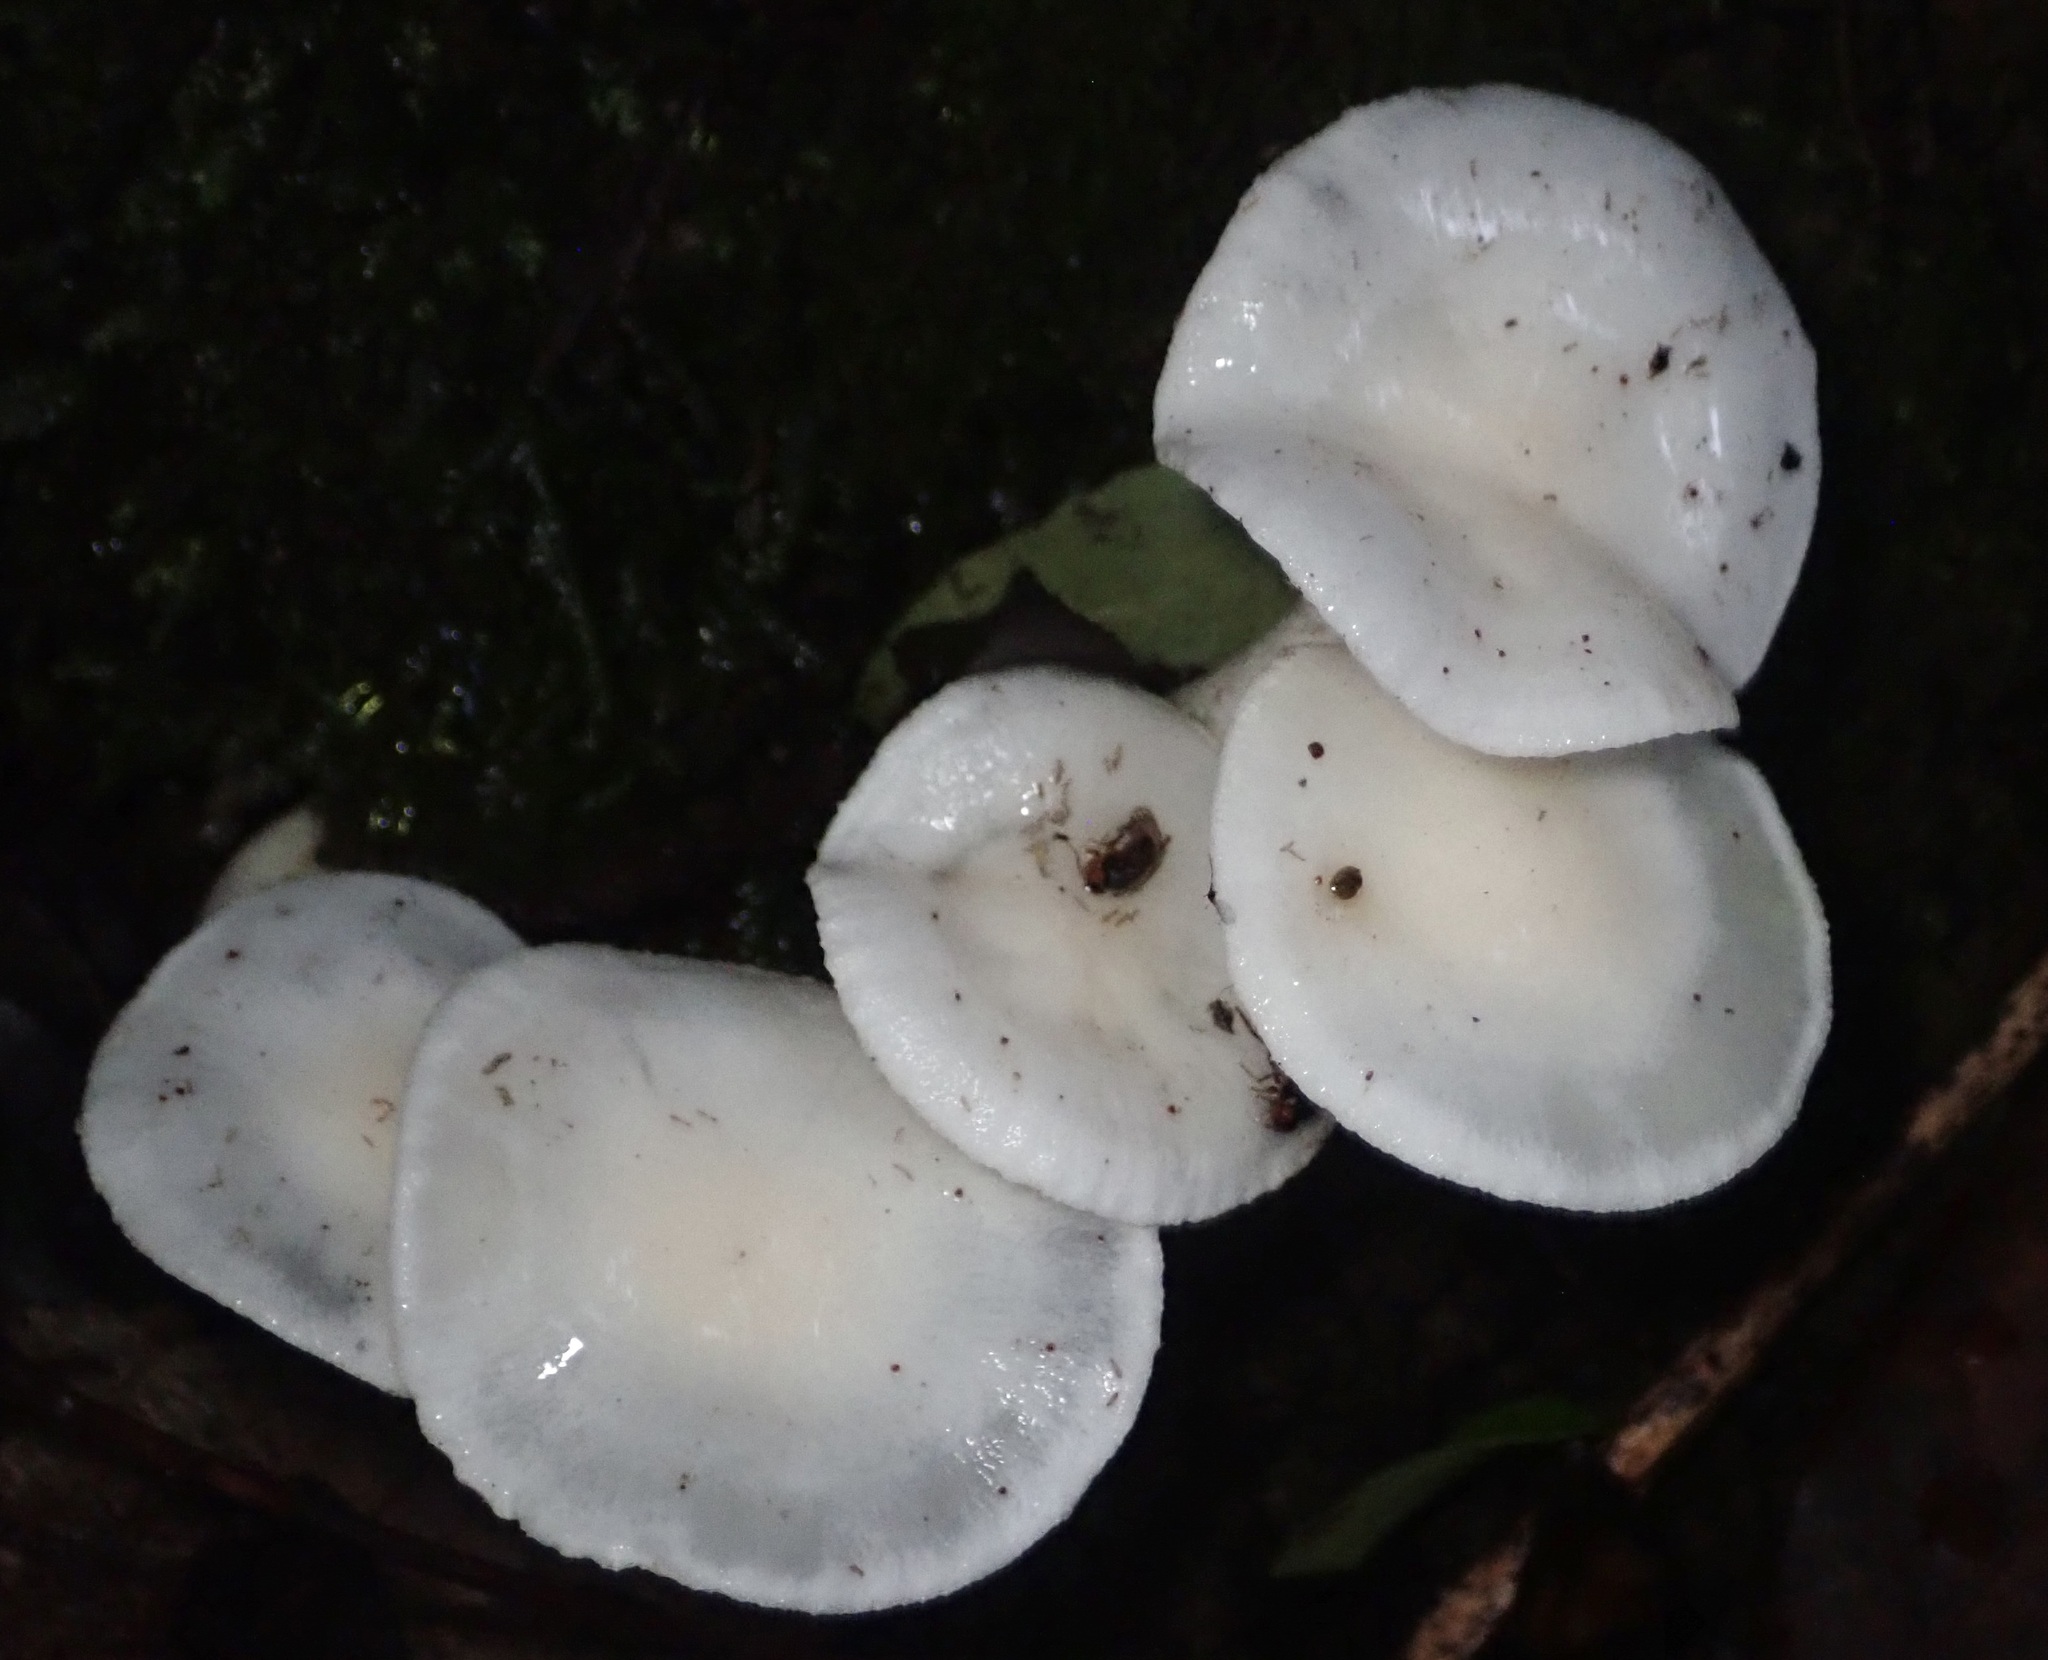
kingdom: Fungi
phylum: Basidiomycota
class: Agaricomycetes
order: Agaricales
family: Hygrophoraceae
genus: Hygrophorus
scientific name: Hygrophorus eburneus
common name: Ivory wax-cap
